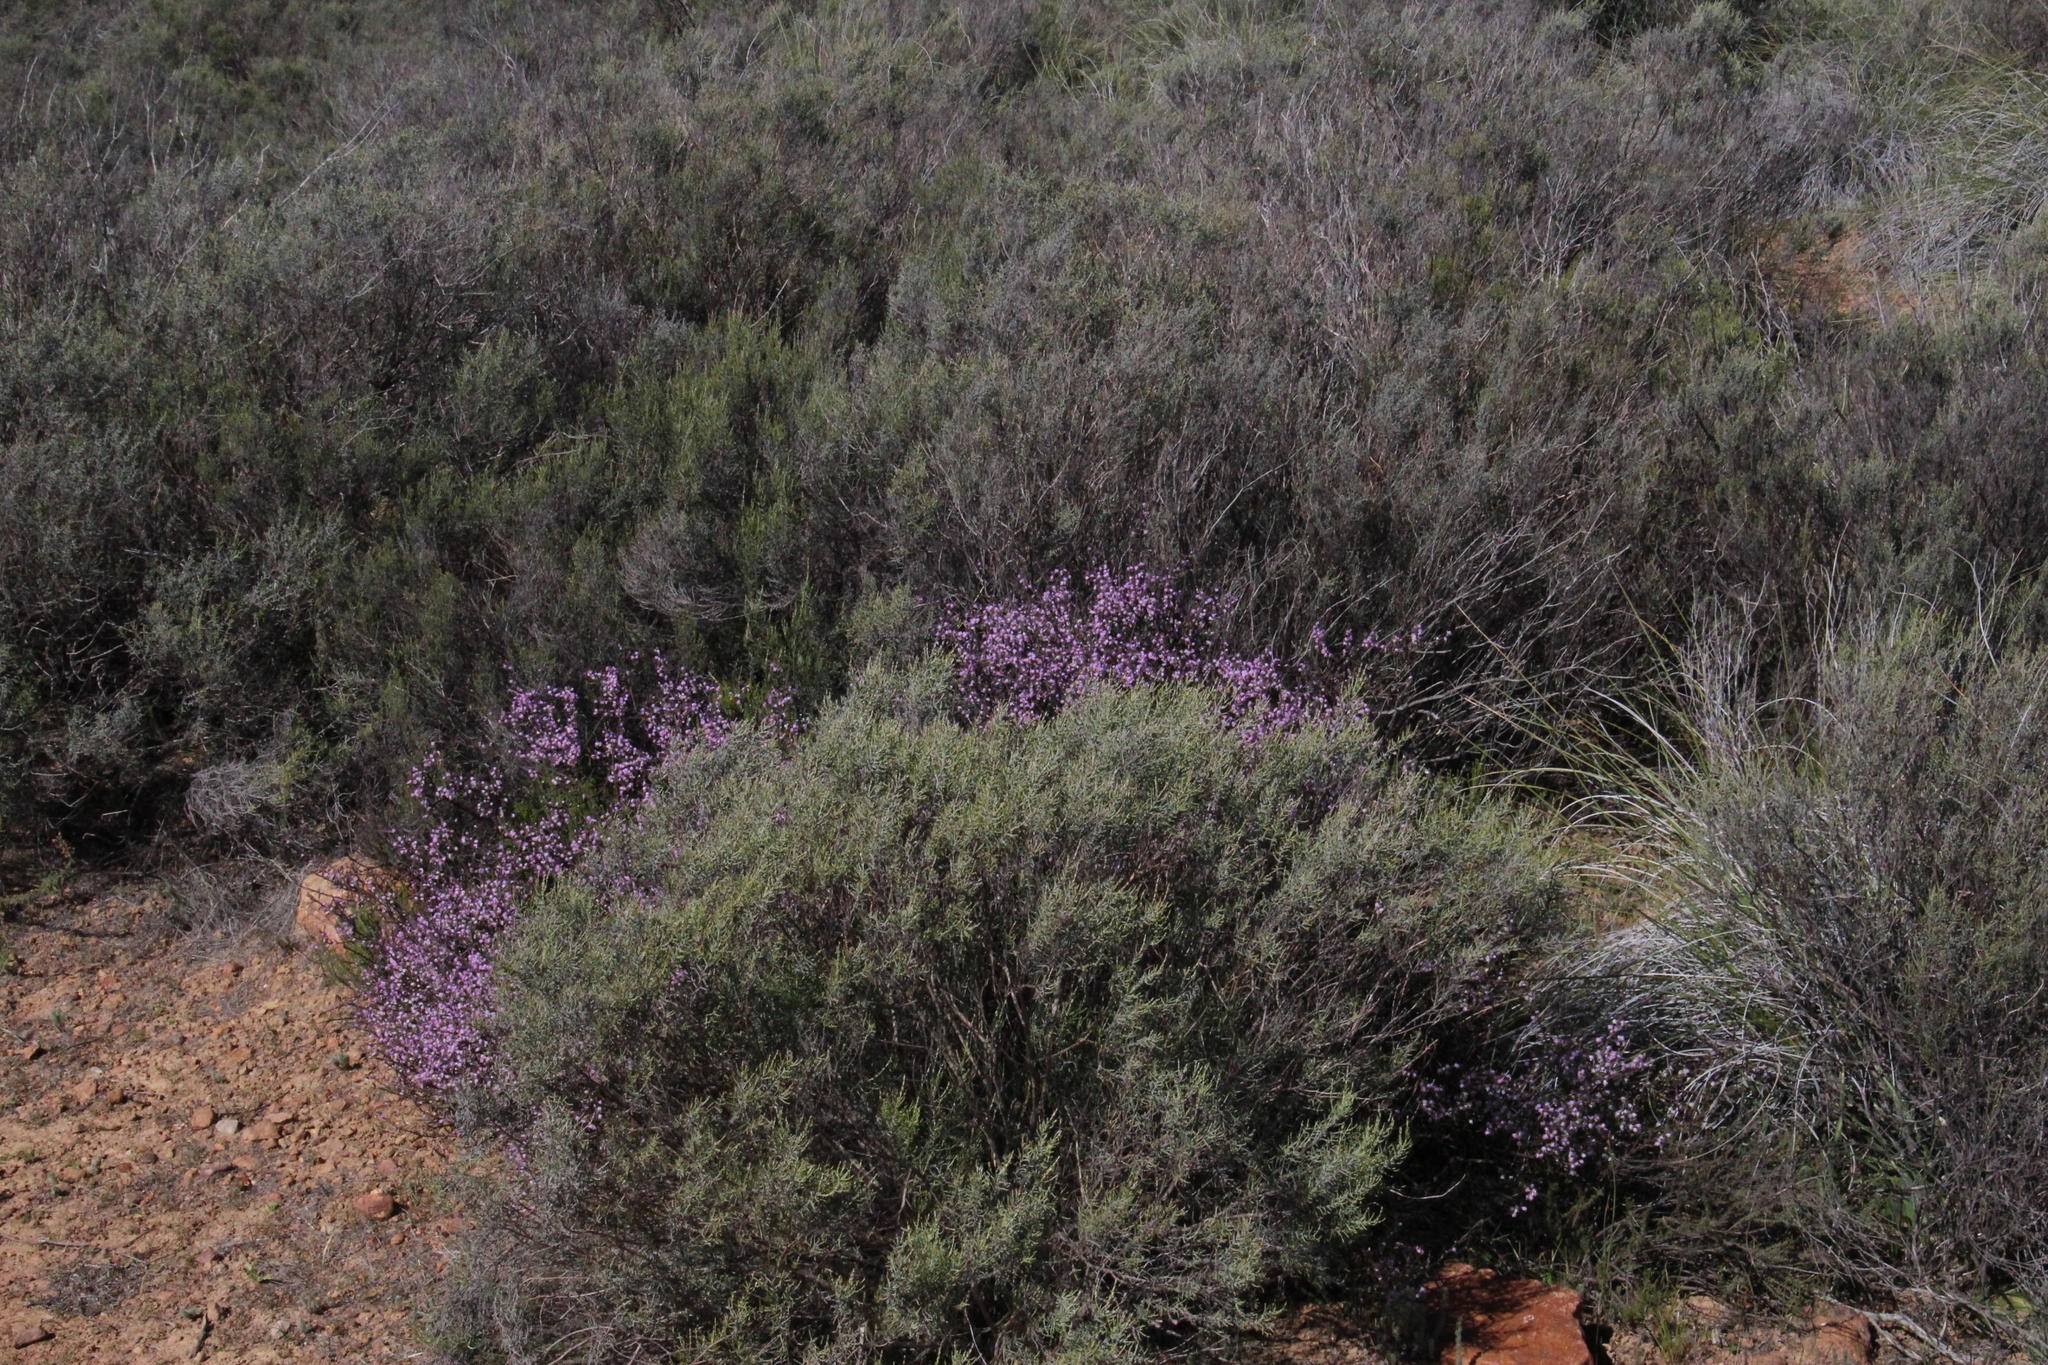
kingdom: Plantae
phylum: Tracheophyta
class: Magnoliopsida
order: Fabales
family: Polygalaceae
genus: Muraltia
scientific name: Muraltia spinosa
